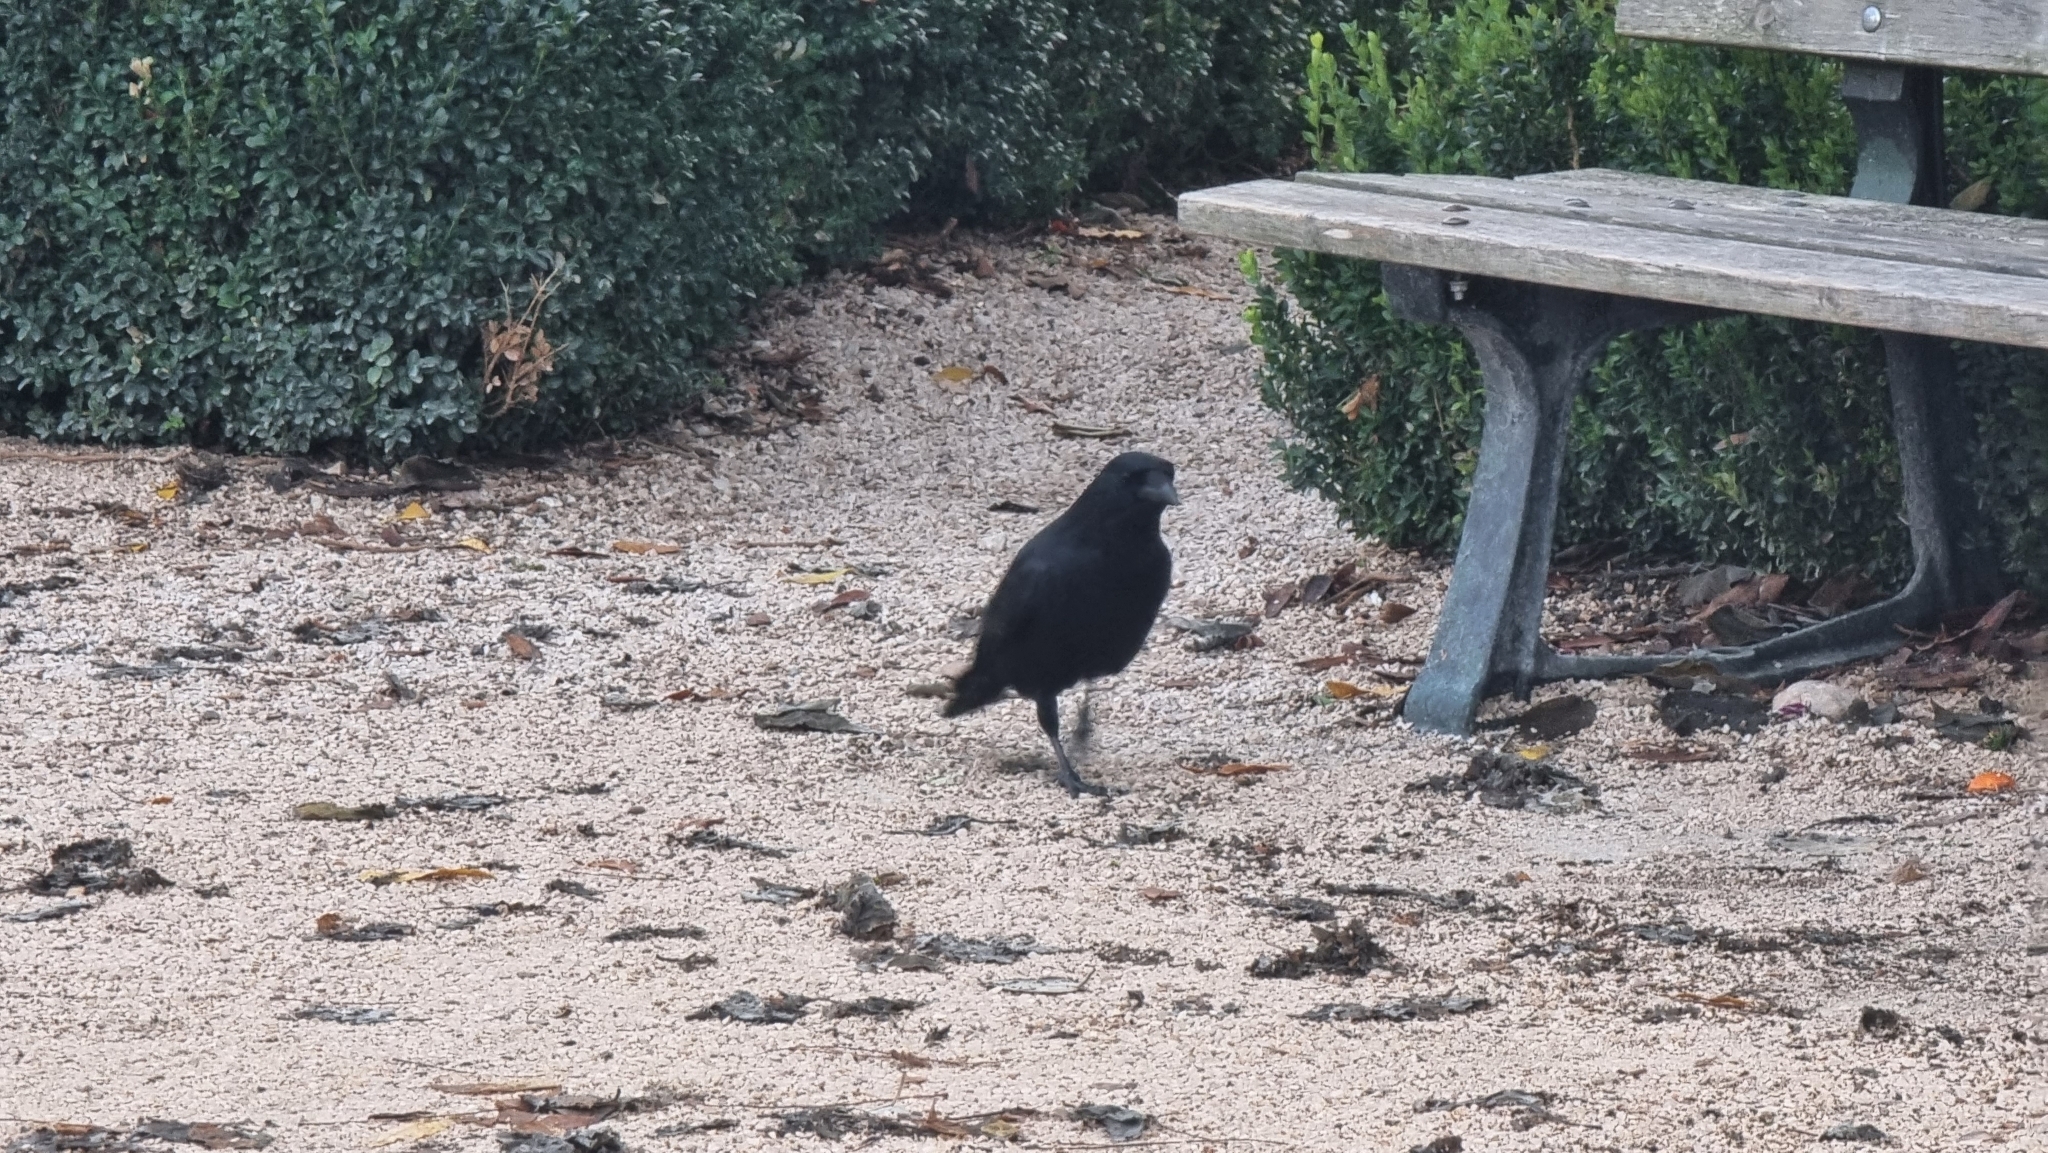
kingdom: Animalia
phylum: Chordata
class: Aves
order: Passeriformes
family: Corvidae
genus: Corvus
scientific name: Corvus corone
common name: Carrion crow
